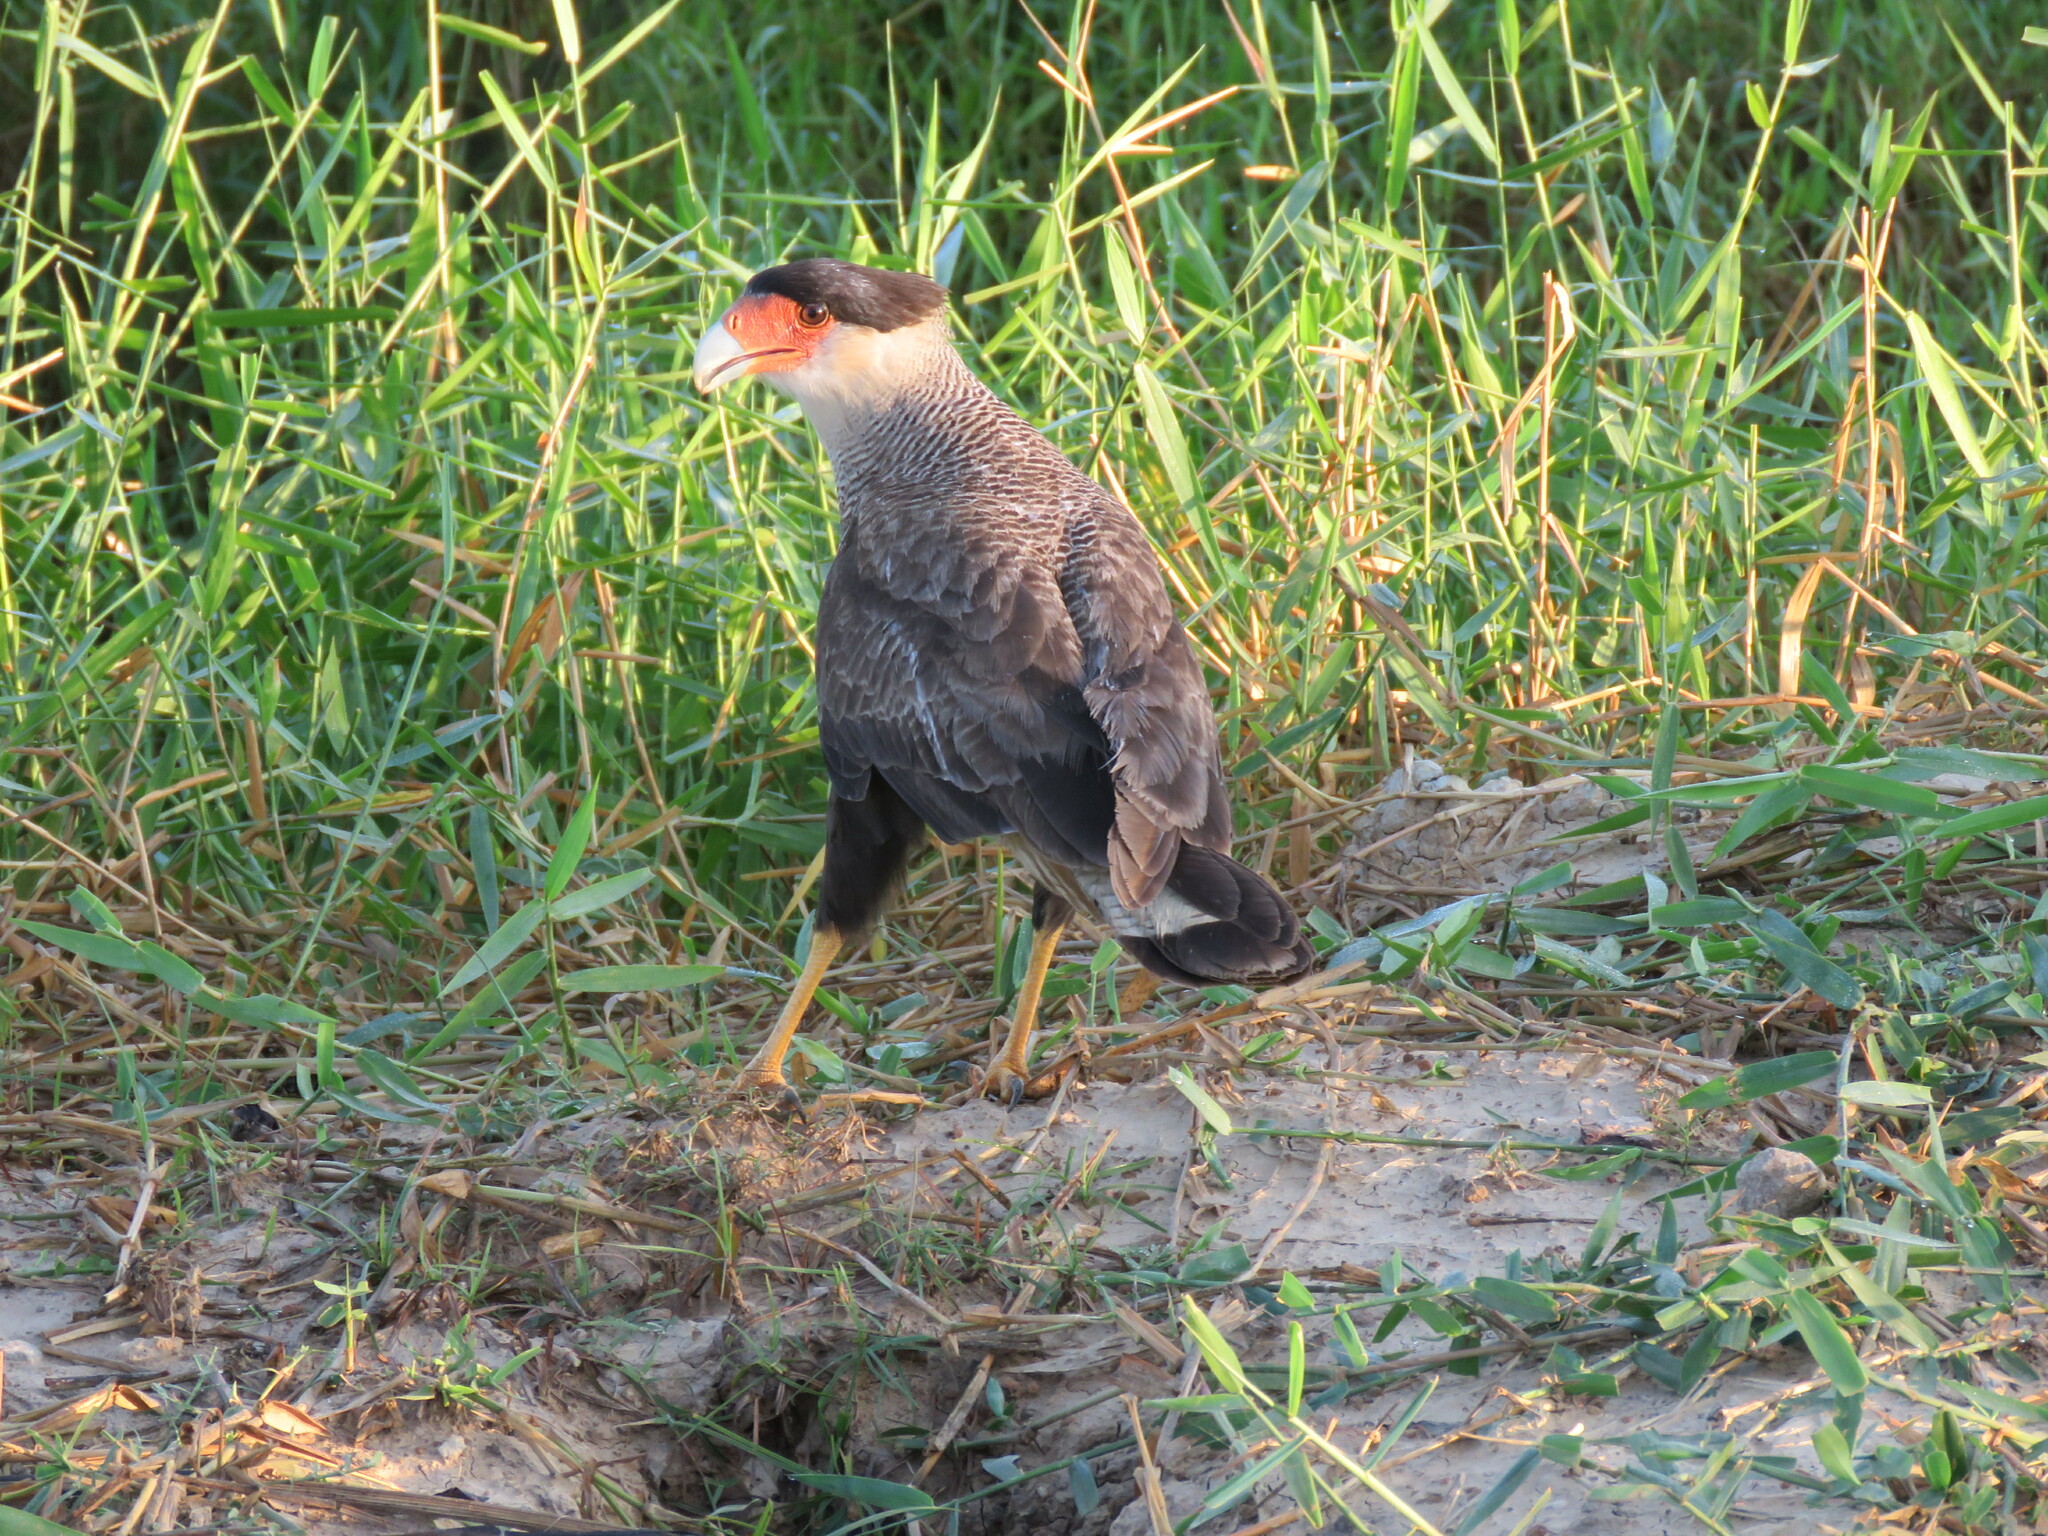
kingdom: Animalia
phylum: Chordata
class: Aves
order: Falconiformes
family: Falconidae
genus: Caracara
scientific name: Caracara plancus
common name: Southern caracara
